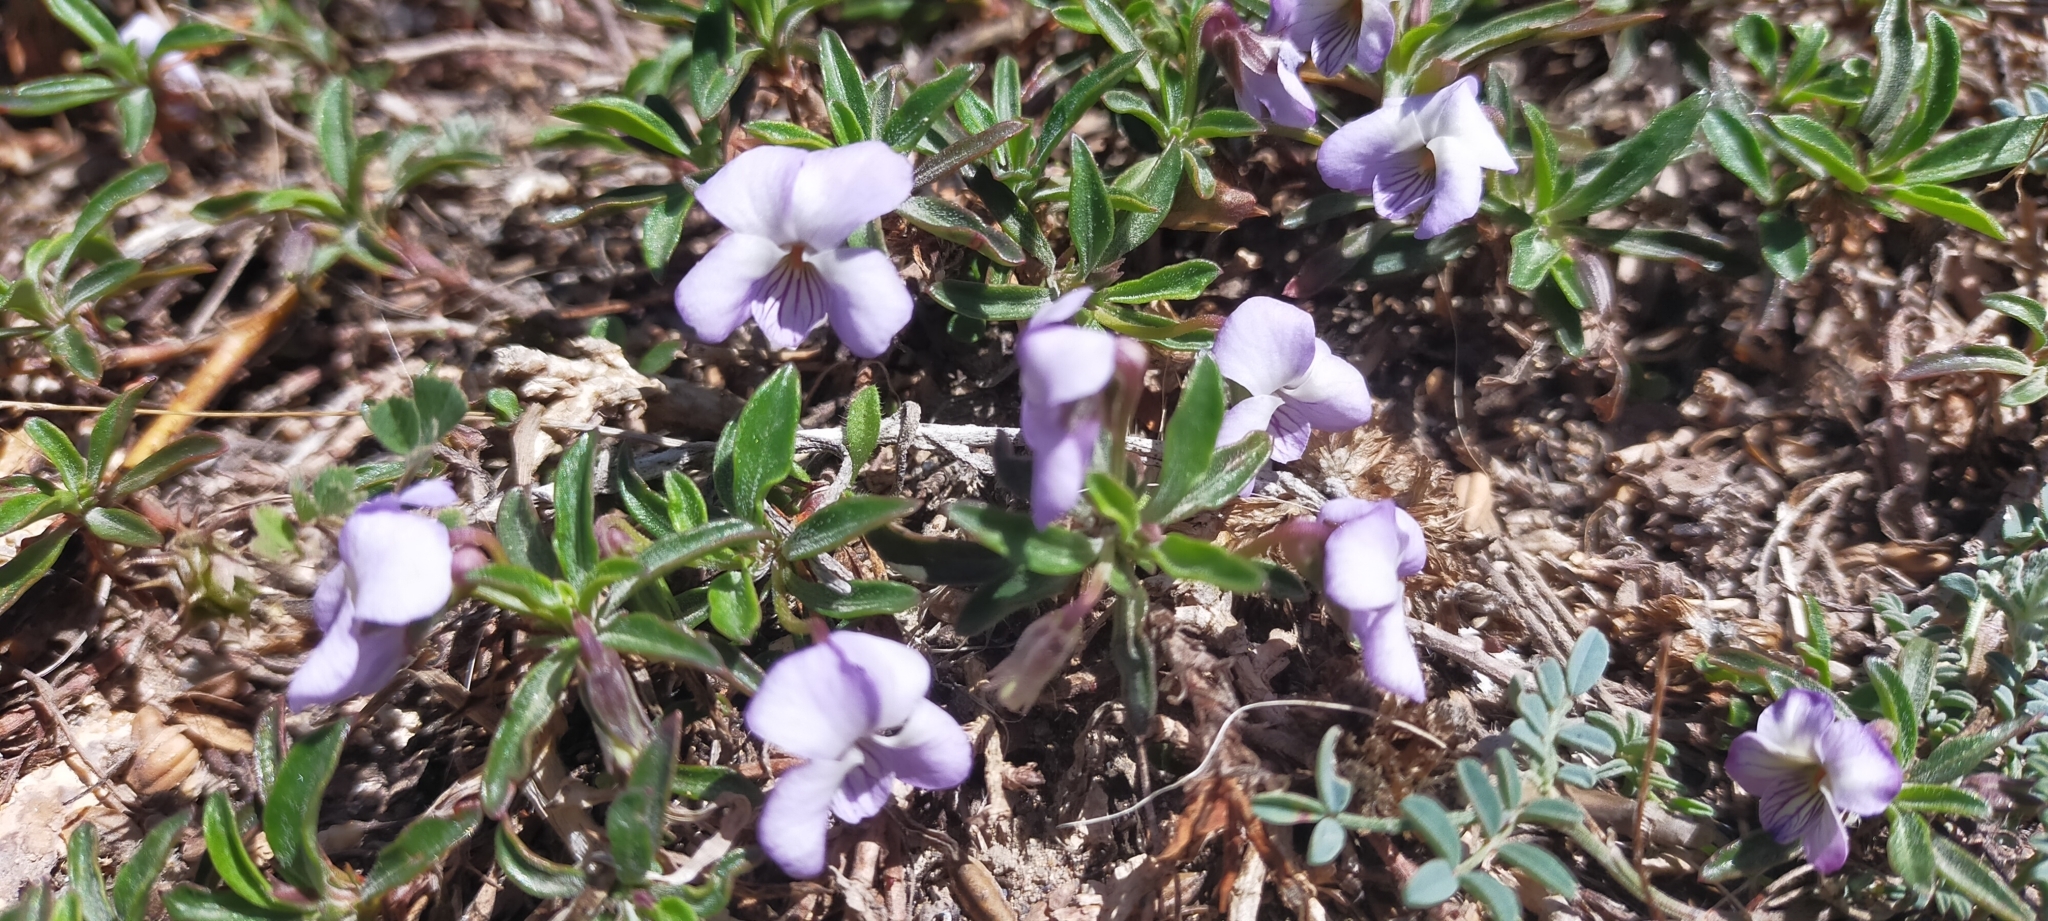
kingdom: Plantae
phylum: Tracheophyta
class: Magnoliopsida
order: Malpighiales
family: Violaceae
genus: Viola
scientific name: Viola arborescens
